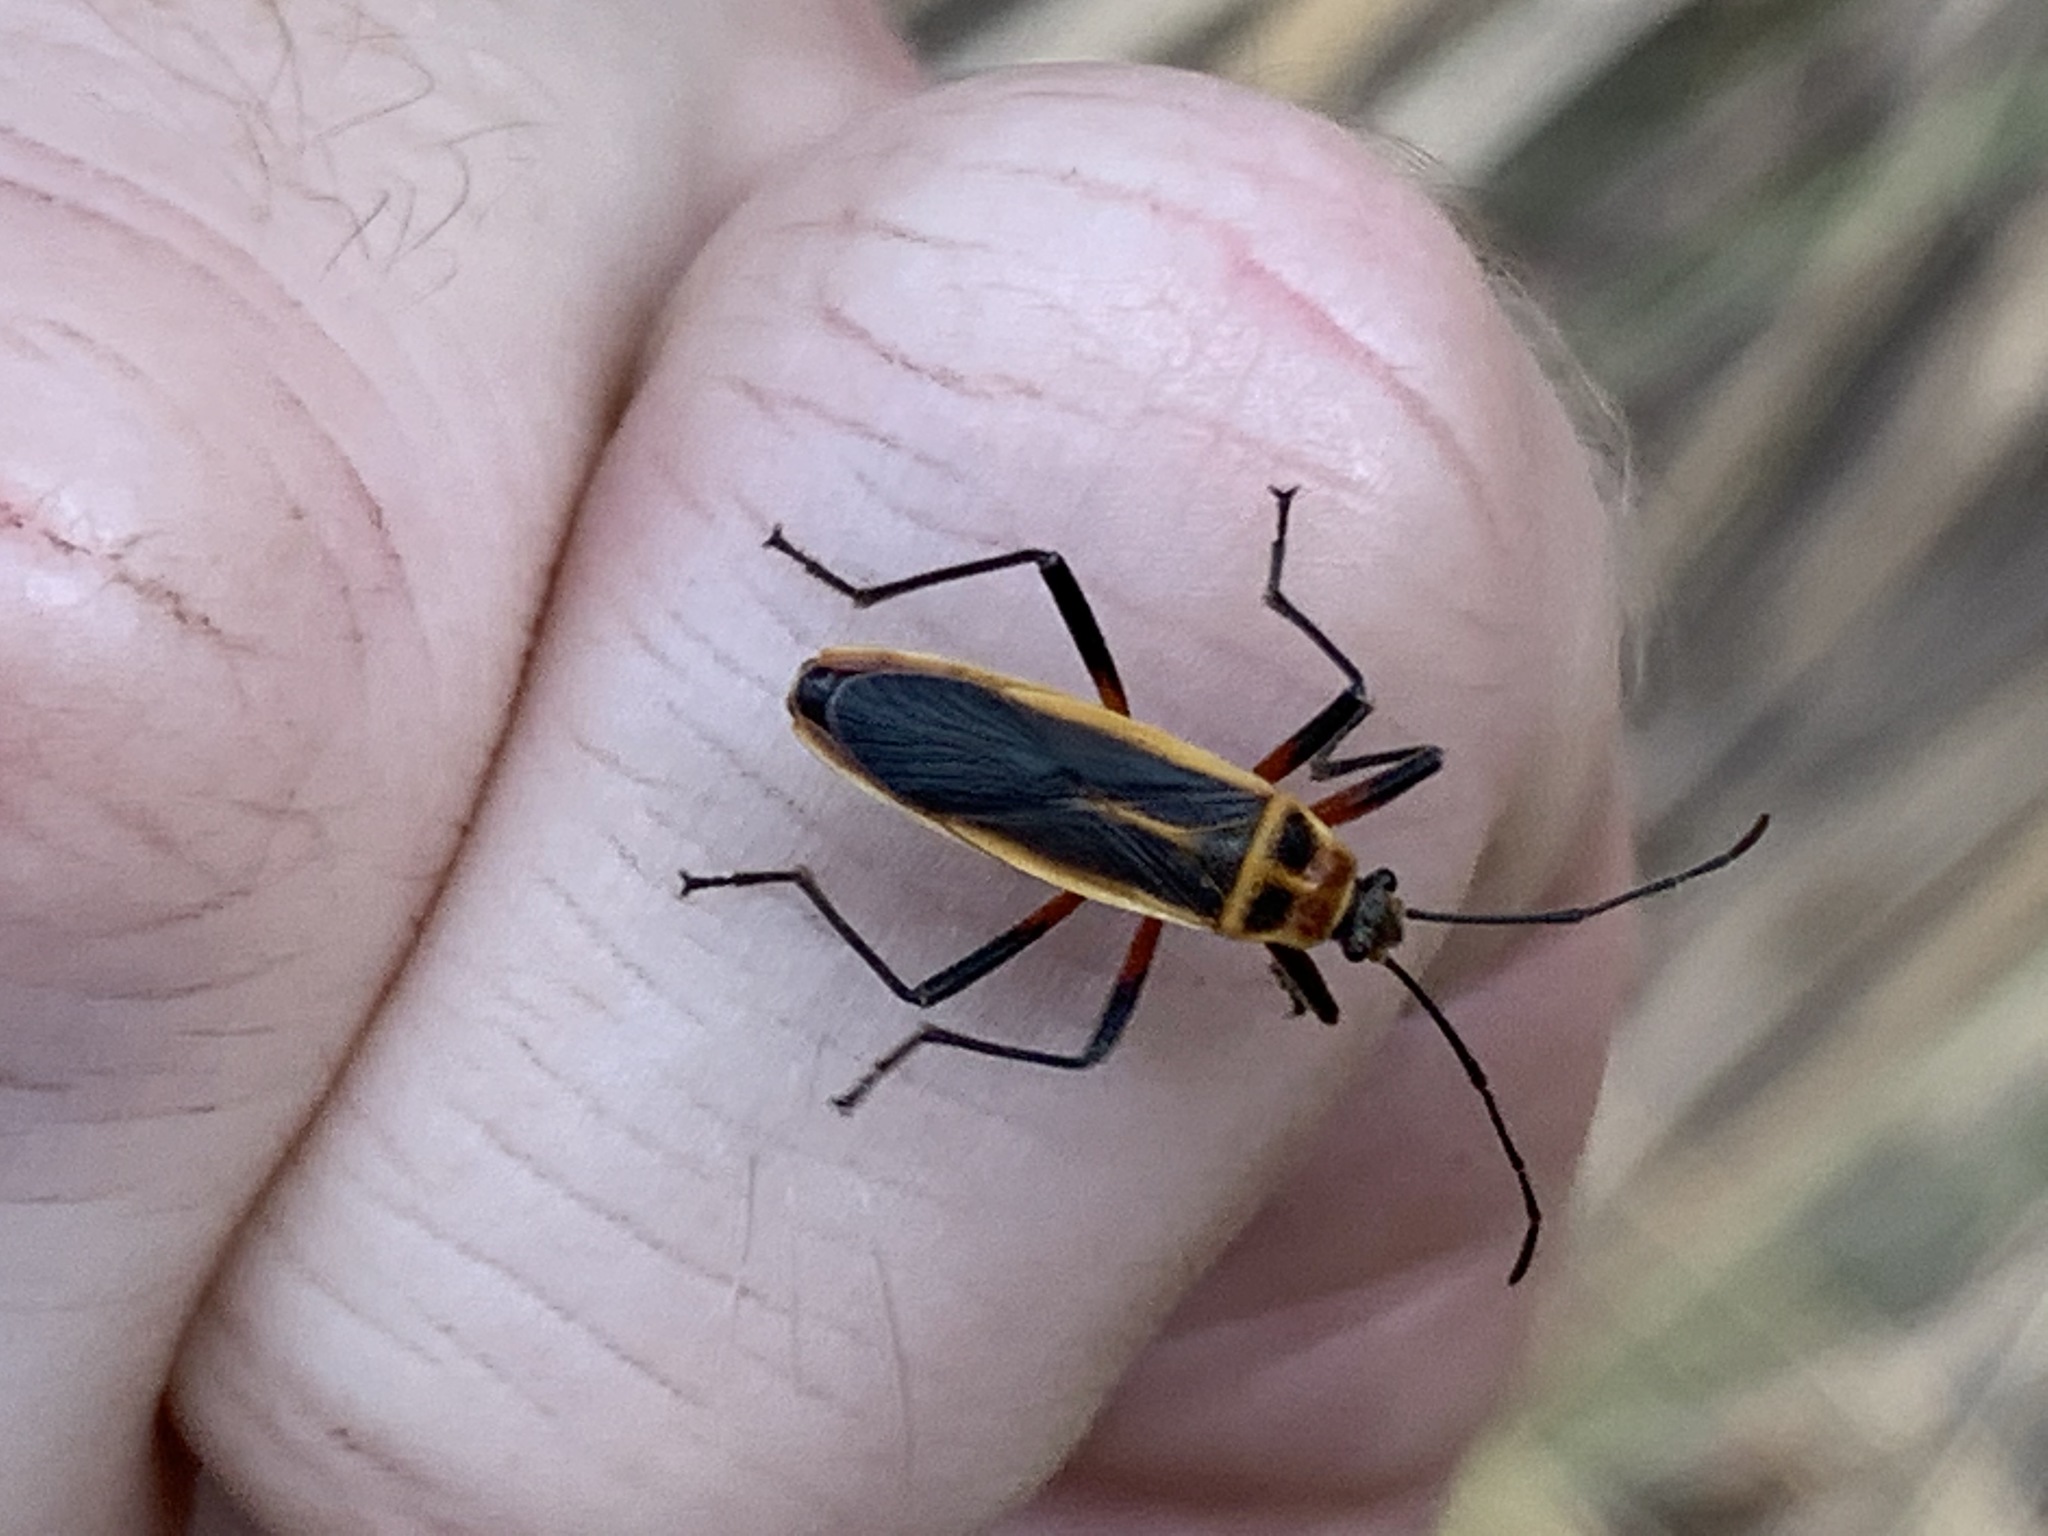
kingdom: Animalia
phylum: Arthropoda
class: Insecta
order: Hemiptera
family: Largidae
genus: Stenomacra
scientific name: Stenomacra marginella
